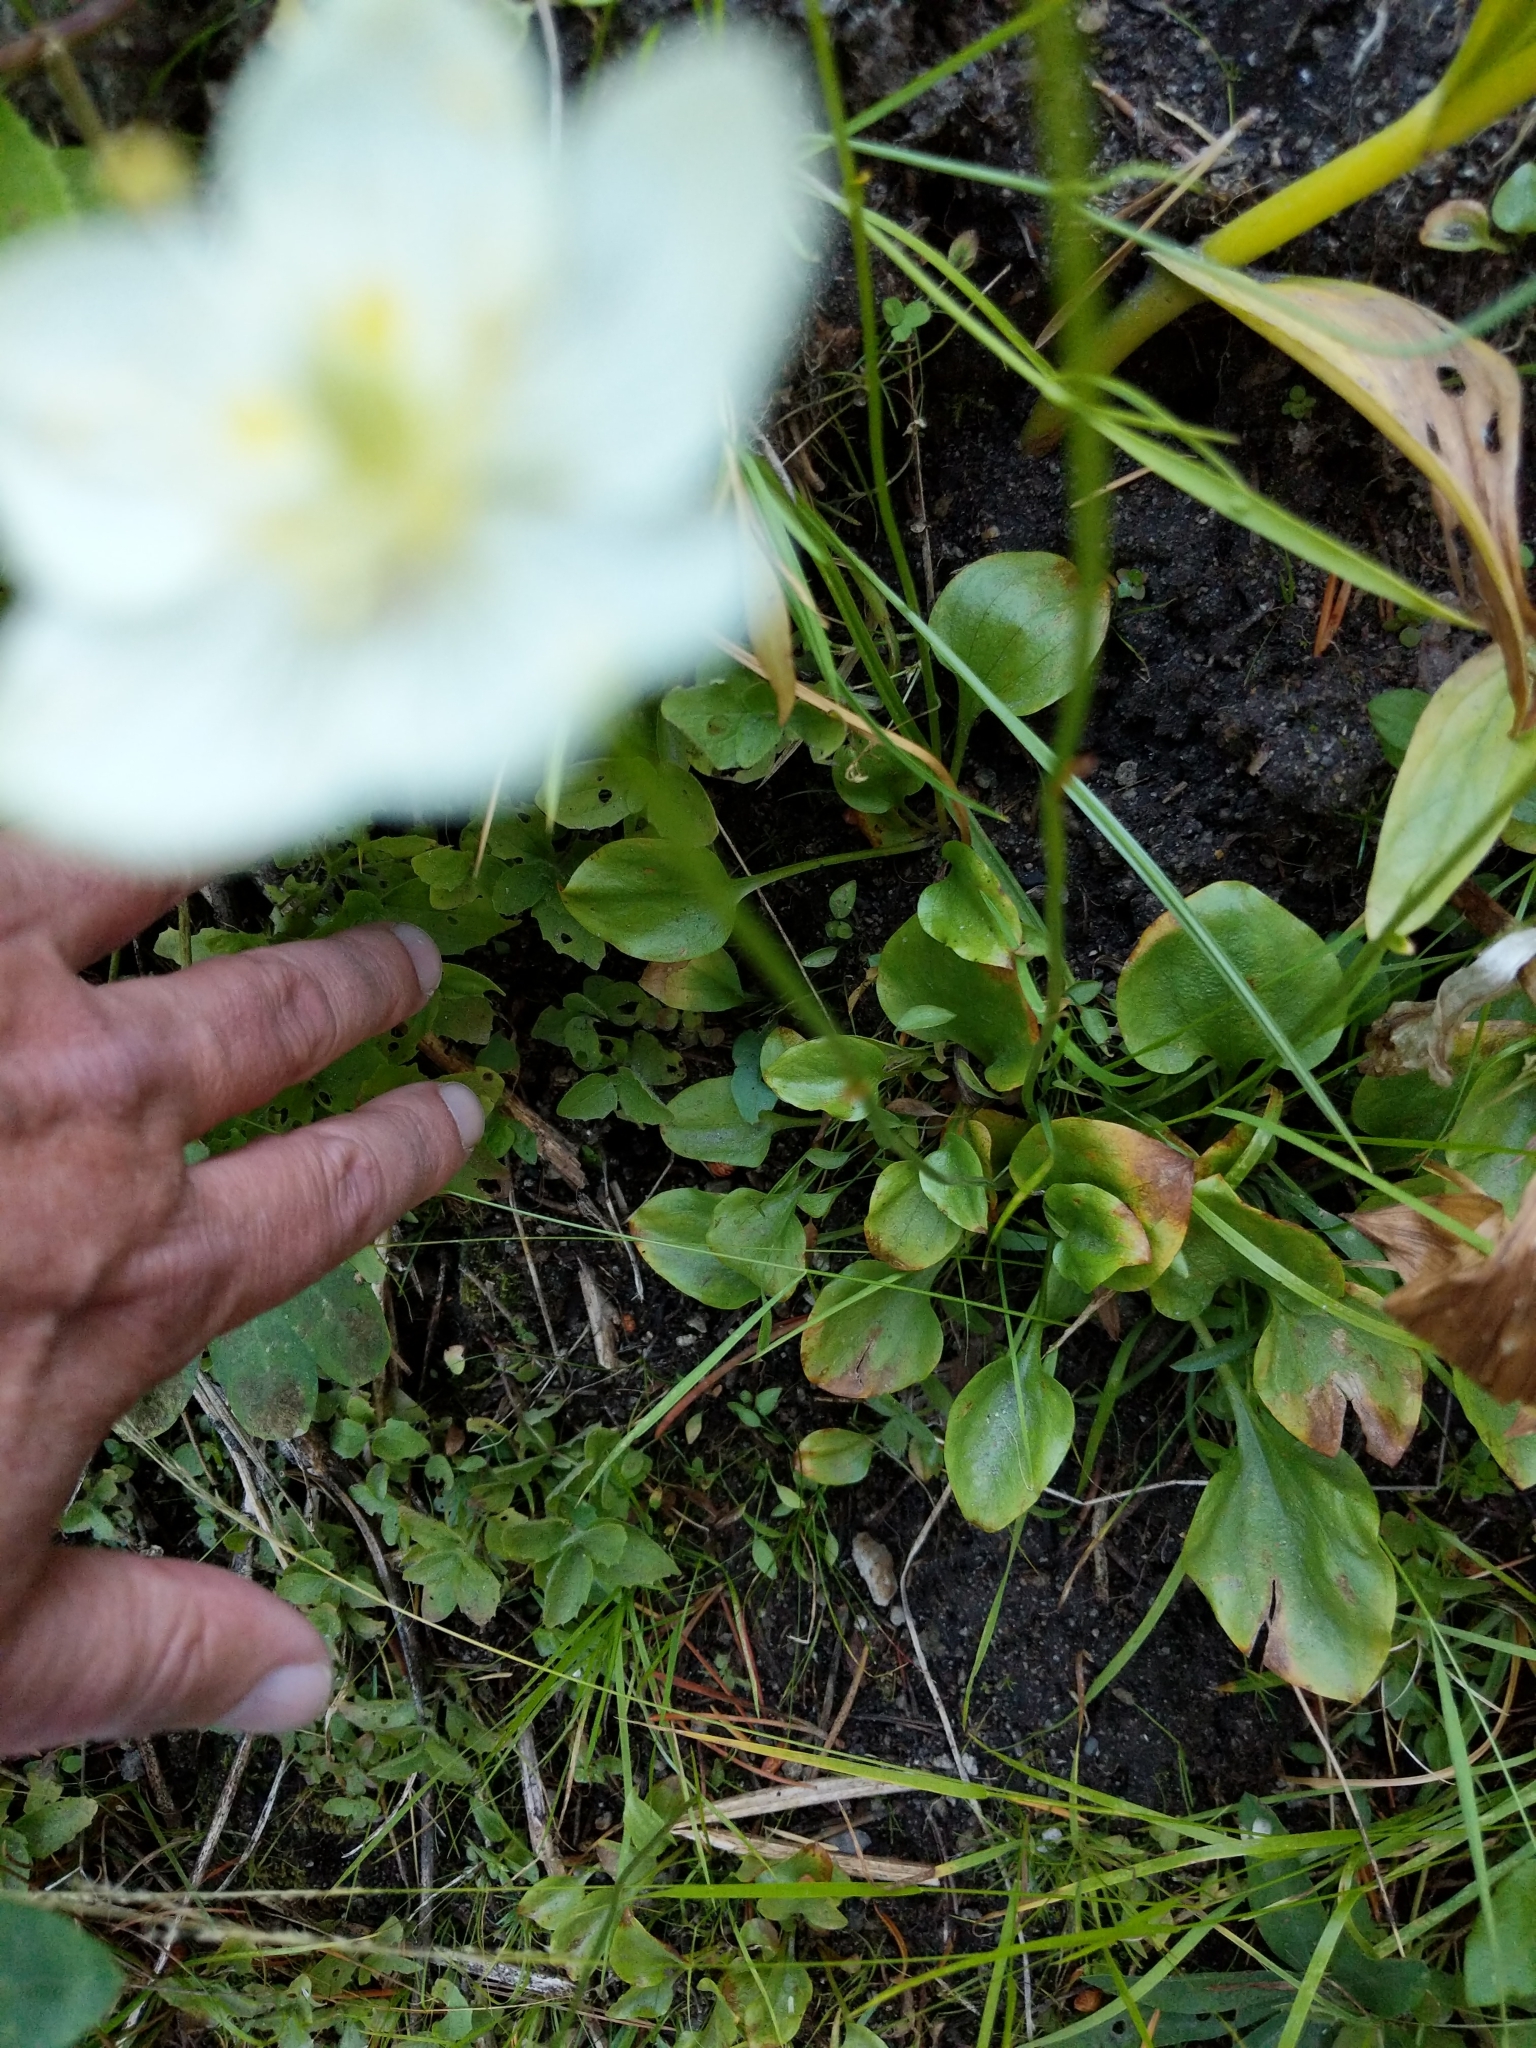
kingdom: Plantae
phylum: Tracheophyta
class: Magnoliopsida
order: Celastrales
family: Parnassiaceae
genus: Parnassia
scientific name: Parnassia palustris
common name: Grass-of-parnassus
